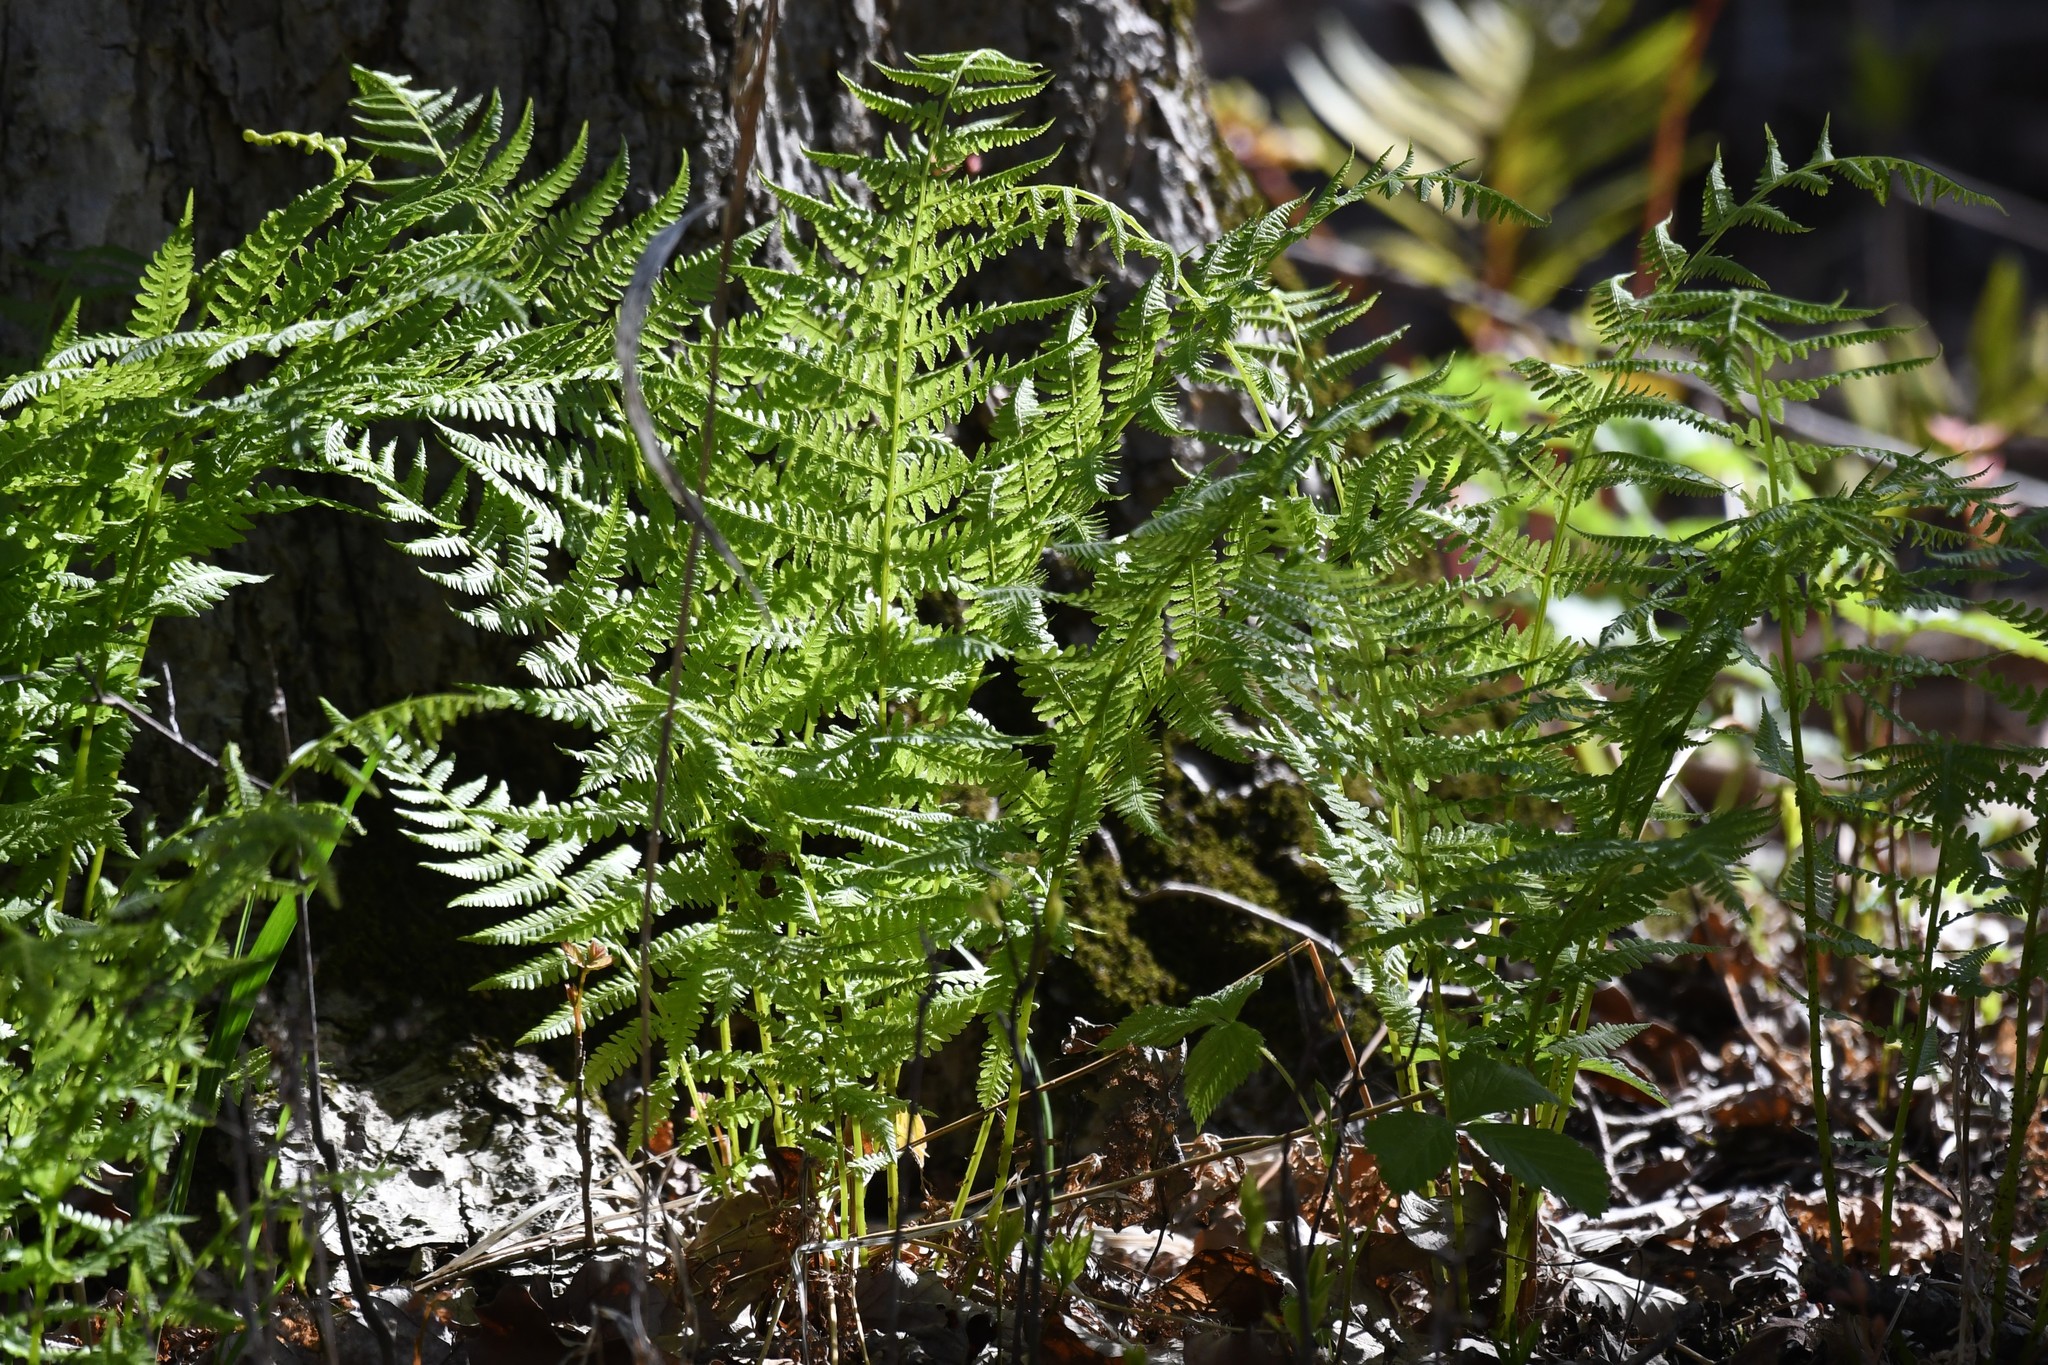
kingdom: Plantae
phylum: Tracheophyta
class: Polypodiopsida
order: Polypodiales
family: Athyriaceae
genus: Athyrium
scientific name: Athyrium angustum
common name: Northern lady fern
